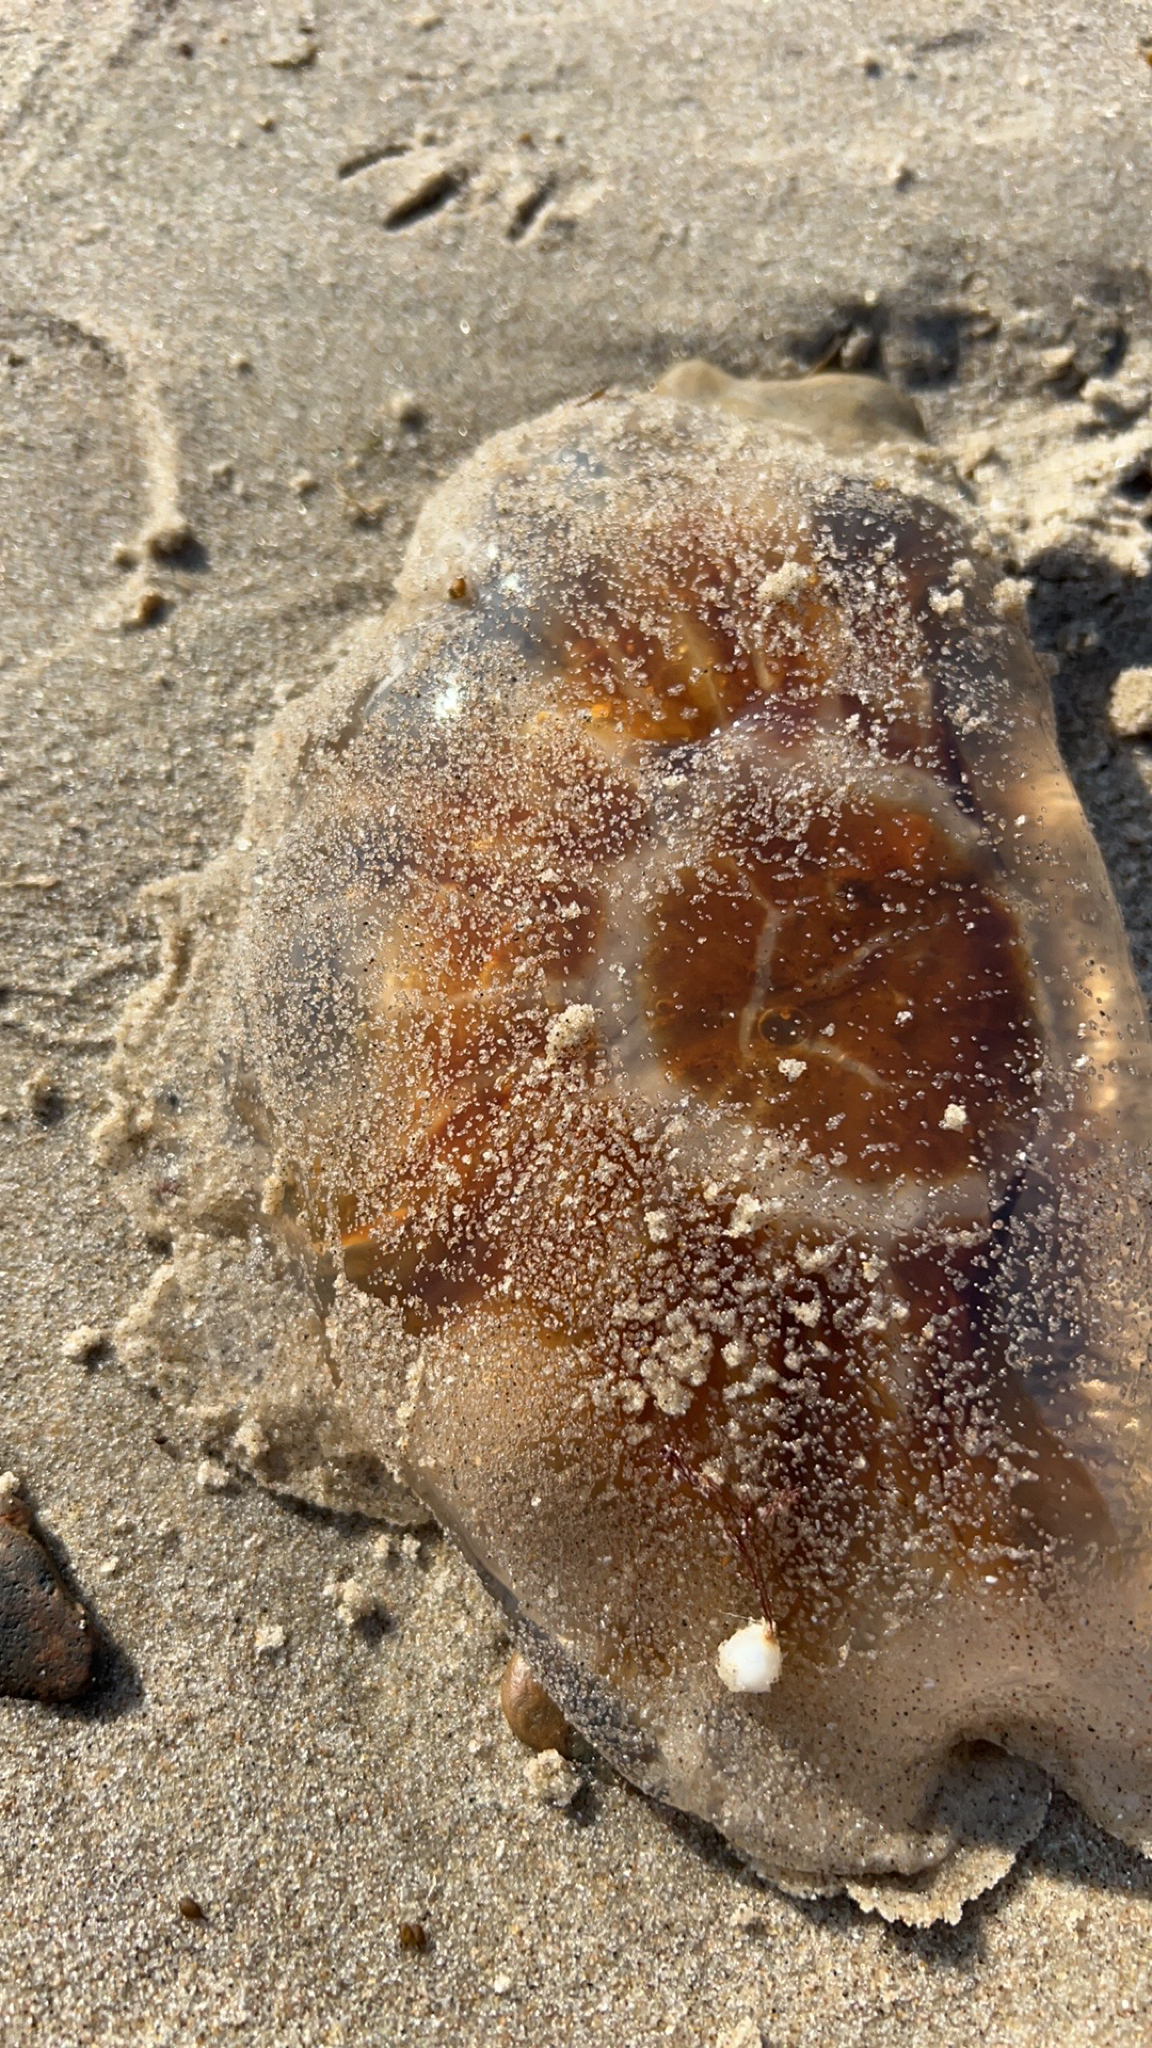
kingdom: Animalia
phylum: Cnidaria
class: Scyphozoa
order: Semaeostomeae
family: Cyaneidae
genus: Cyanea
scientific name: Cyanea capillata
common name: Lion's mane jellyfish
